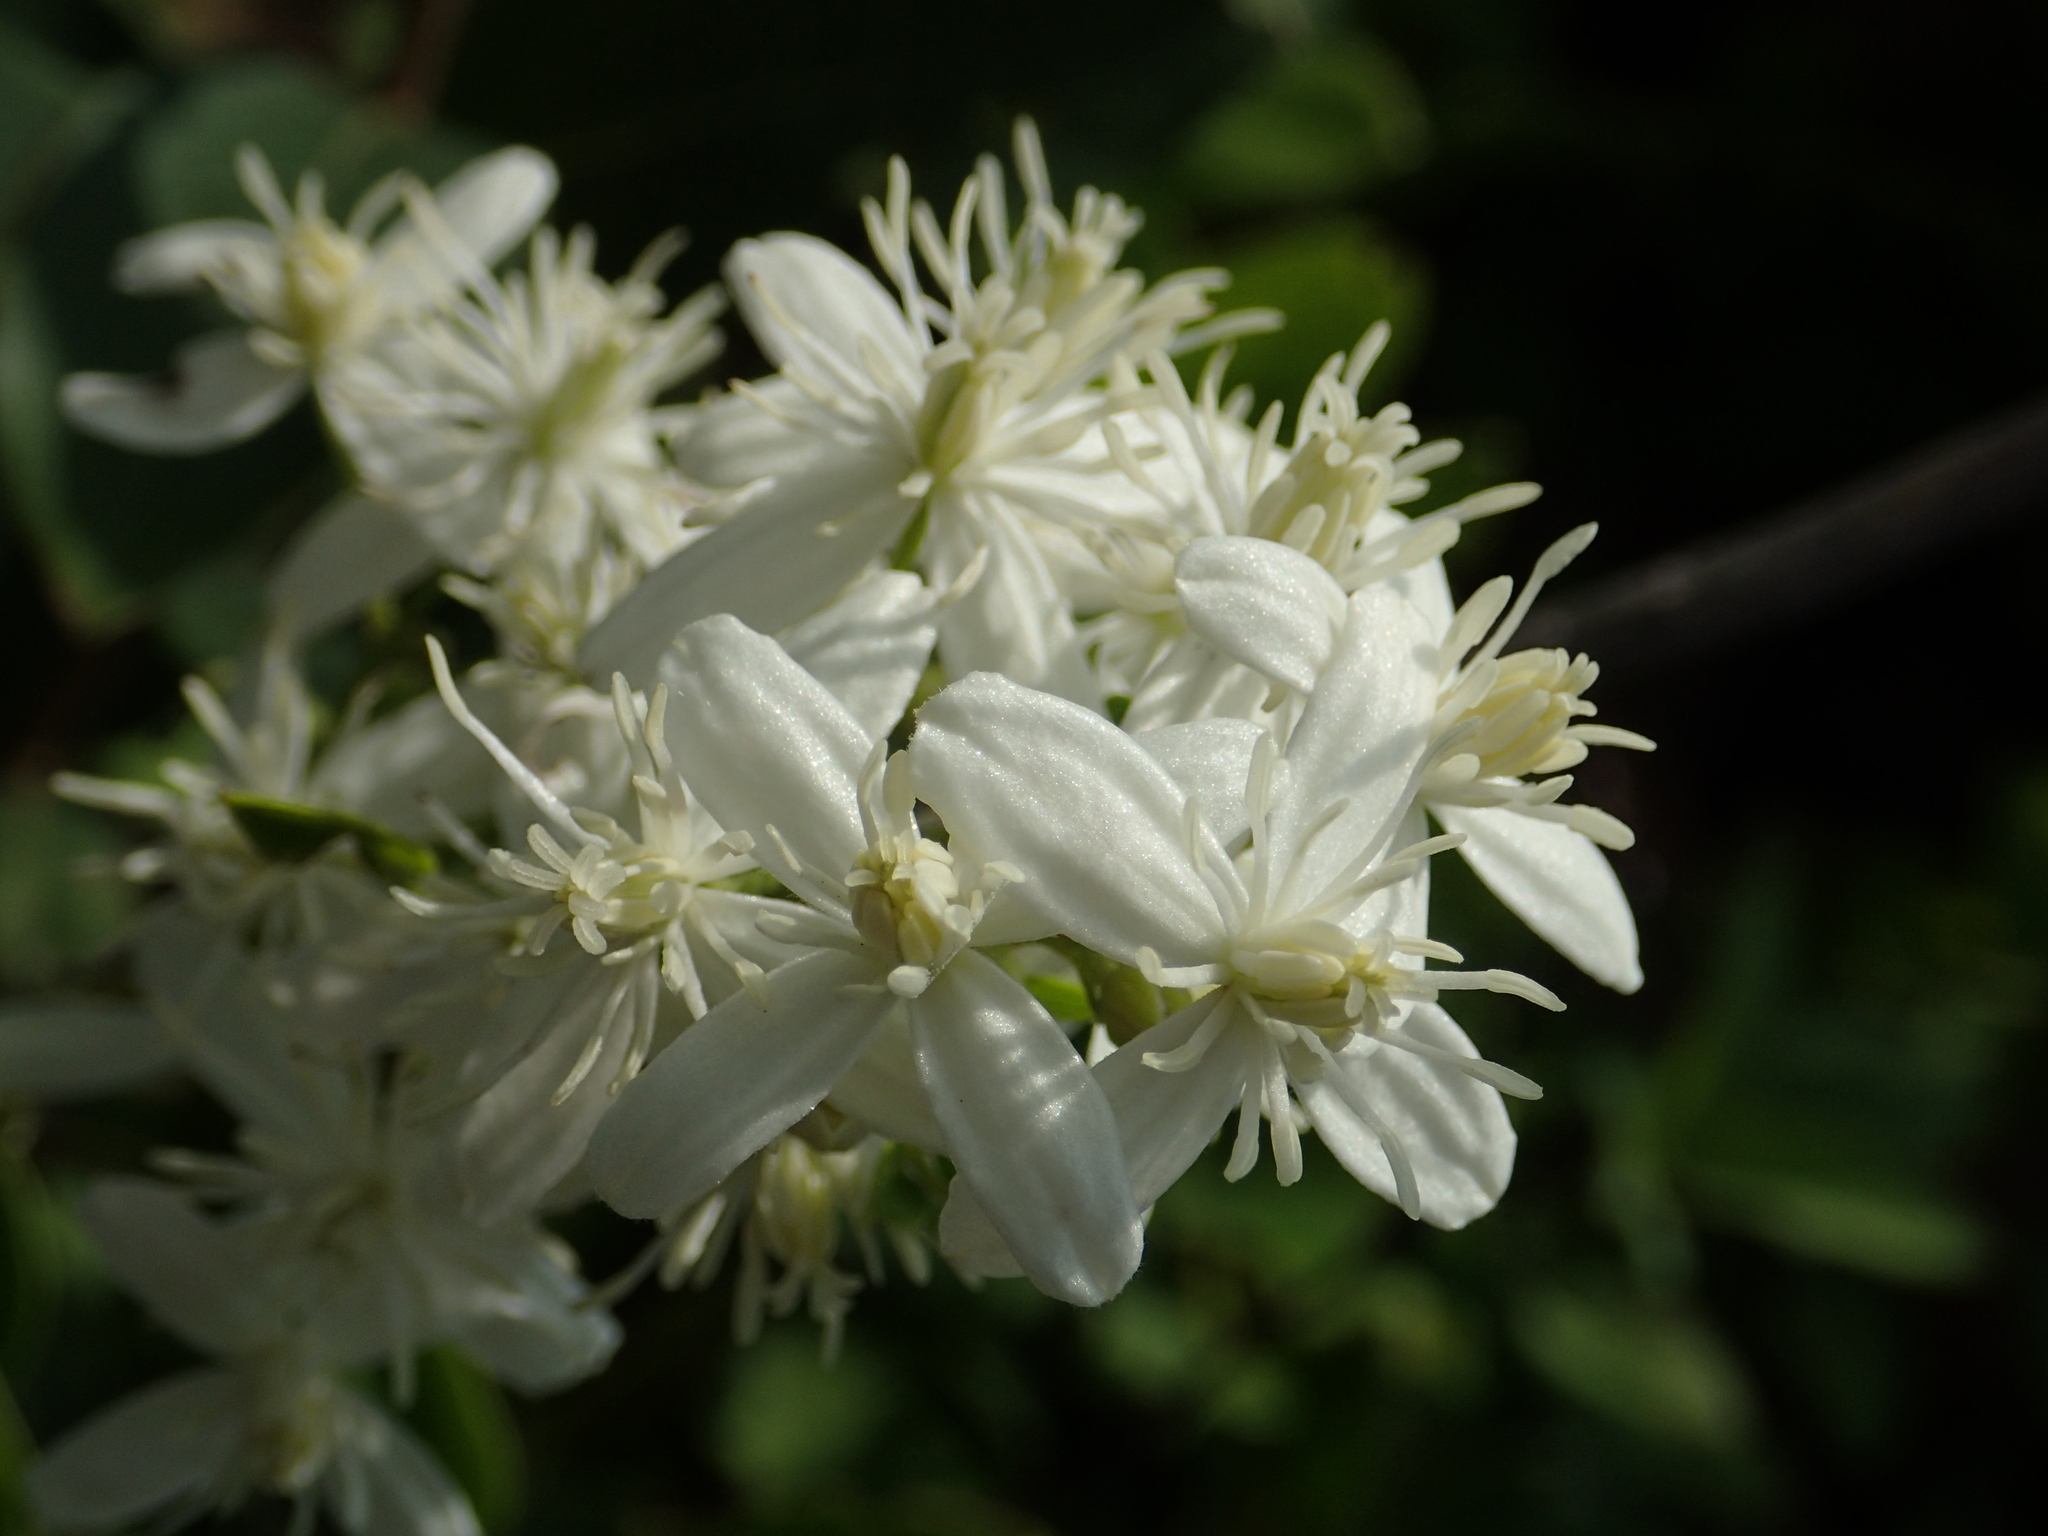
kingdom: Plantae
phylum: Tracheophyta
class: Magnoliopsida
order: Ranunculales
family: Ranunculaceae
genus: Clematis
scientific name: Clematis chinensis
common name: Chinese clematis
